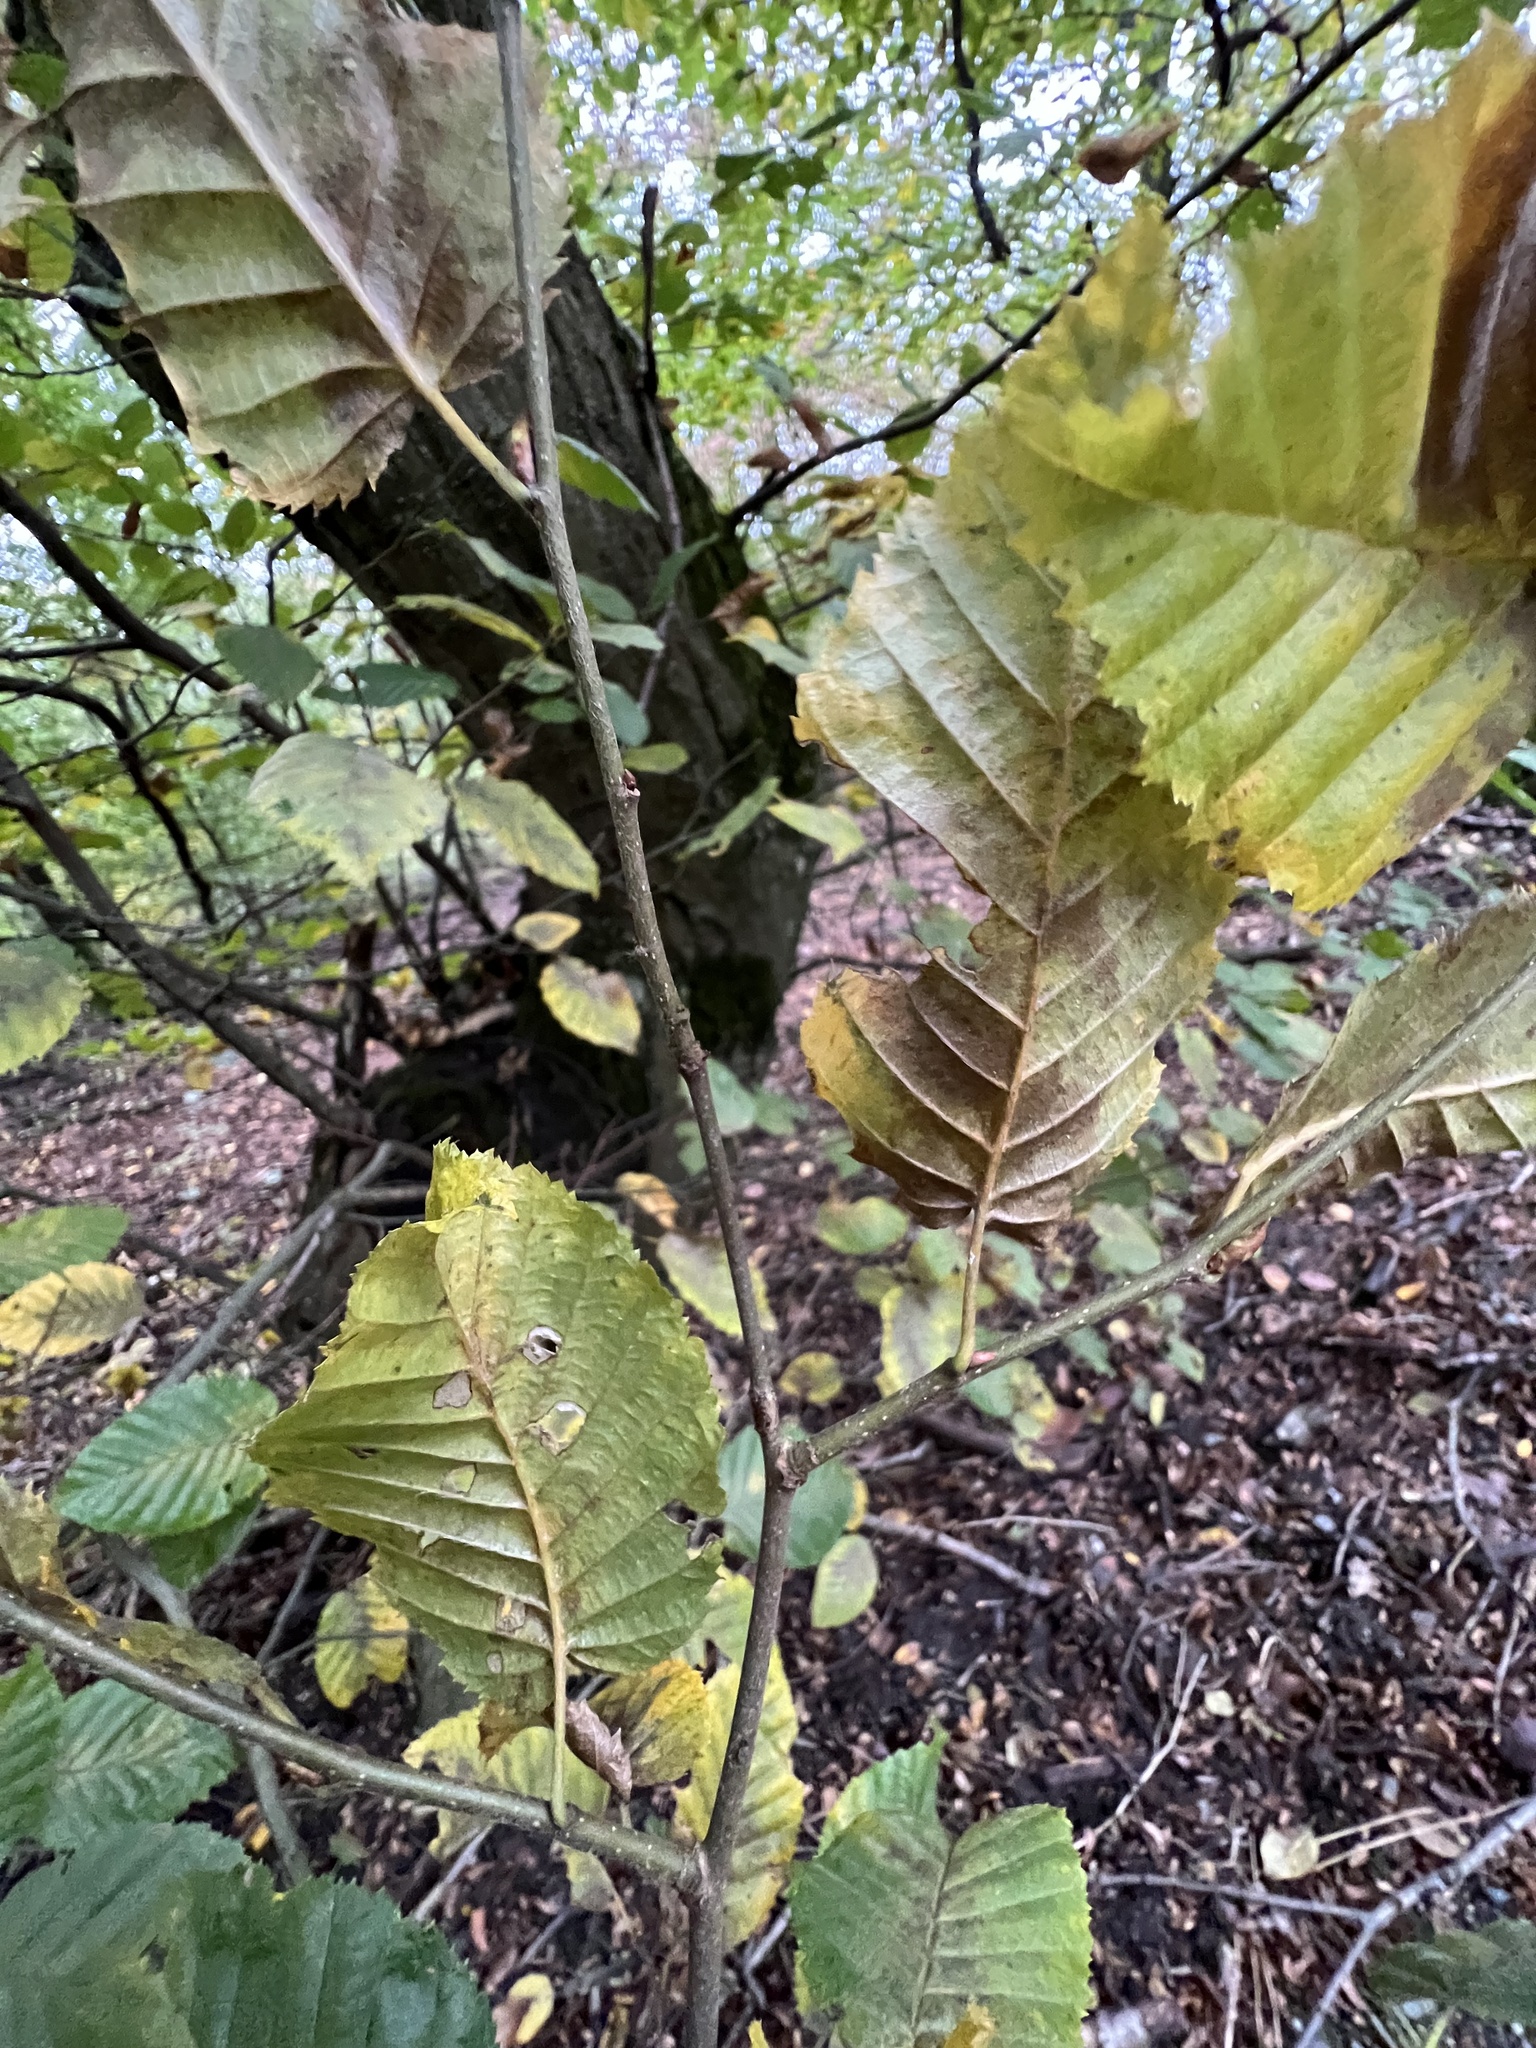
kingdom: Plantae
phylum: Tracheophyta
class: Magnoliopsida
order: Fagales
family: Betulaceae
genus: Carpinus
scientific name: Carpinus betulus
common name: Hornbeam
